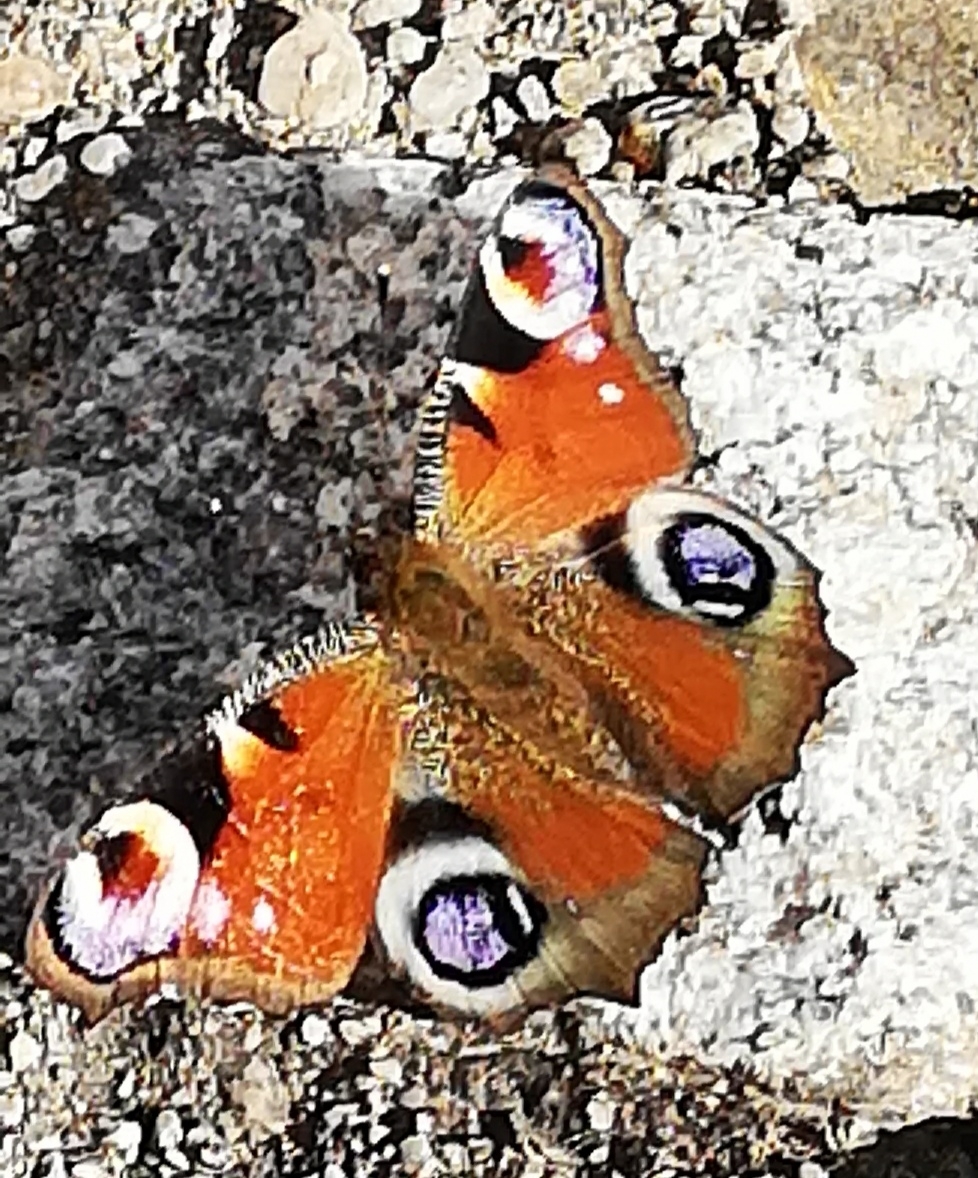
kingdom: Animalia
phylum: Arthropoda
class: Insecta
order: Lepidoptera
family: Nymphalidae
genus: Aglais
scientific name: Aglais io
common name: Peacock
